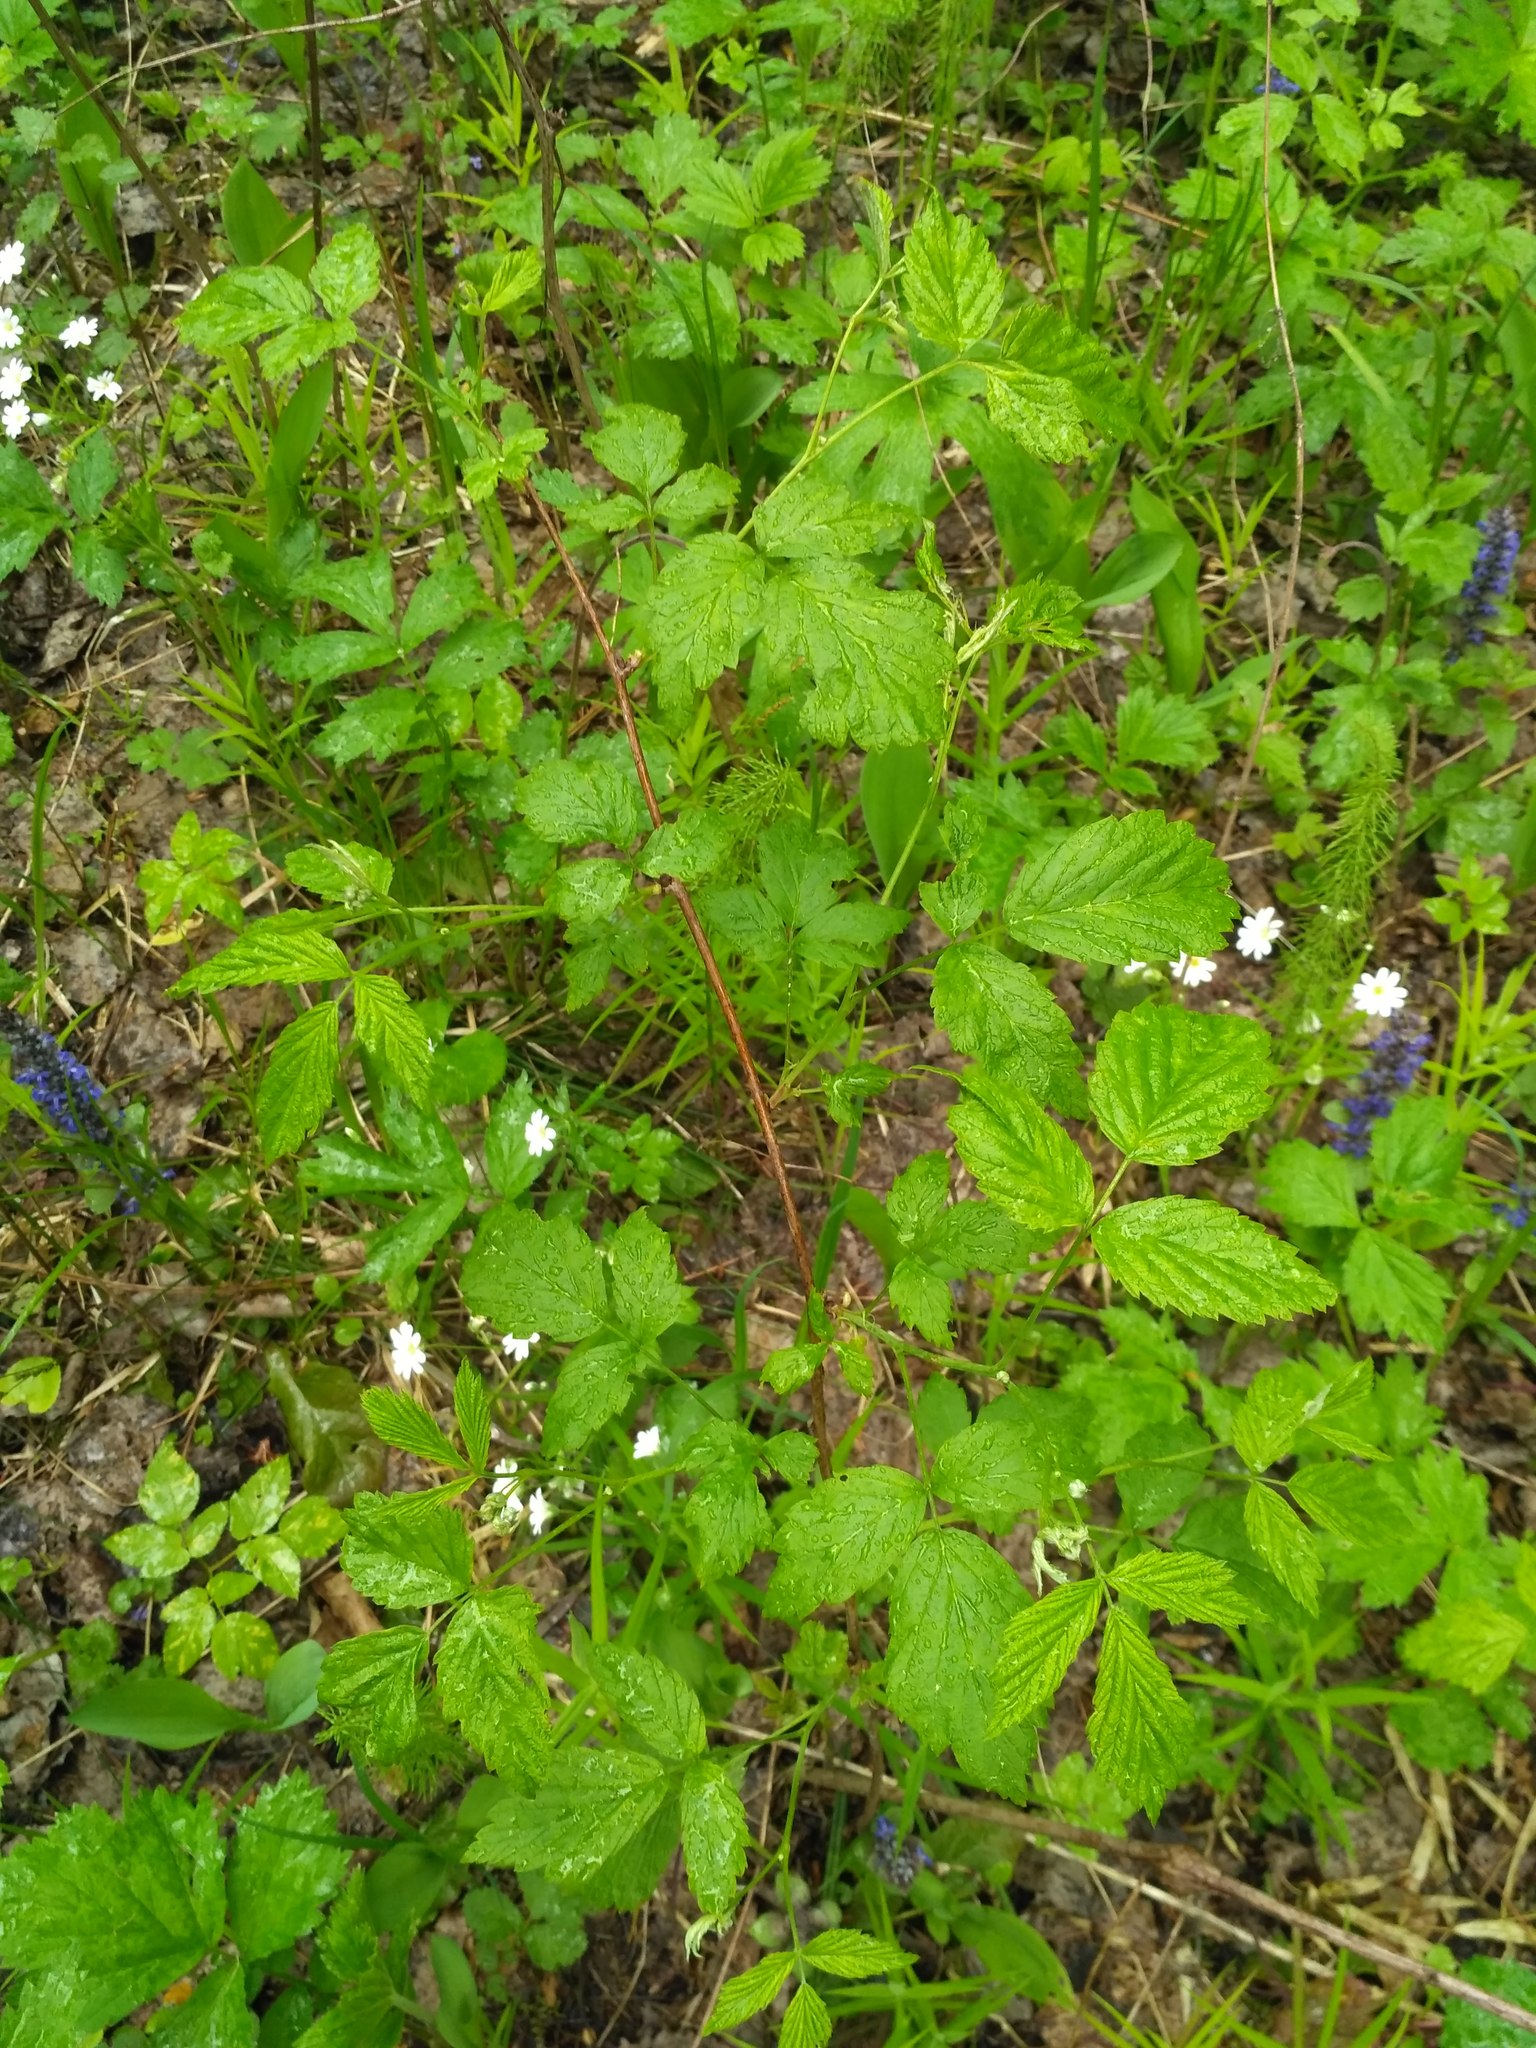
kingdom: Plantae
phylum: Tracheophyta
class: Magnoliopsida
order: Rosales
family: Rosaceae
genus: Rubus
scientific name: Rubus idaeus
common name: Raspberry
